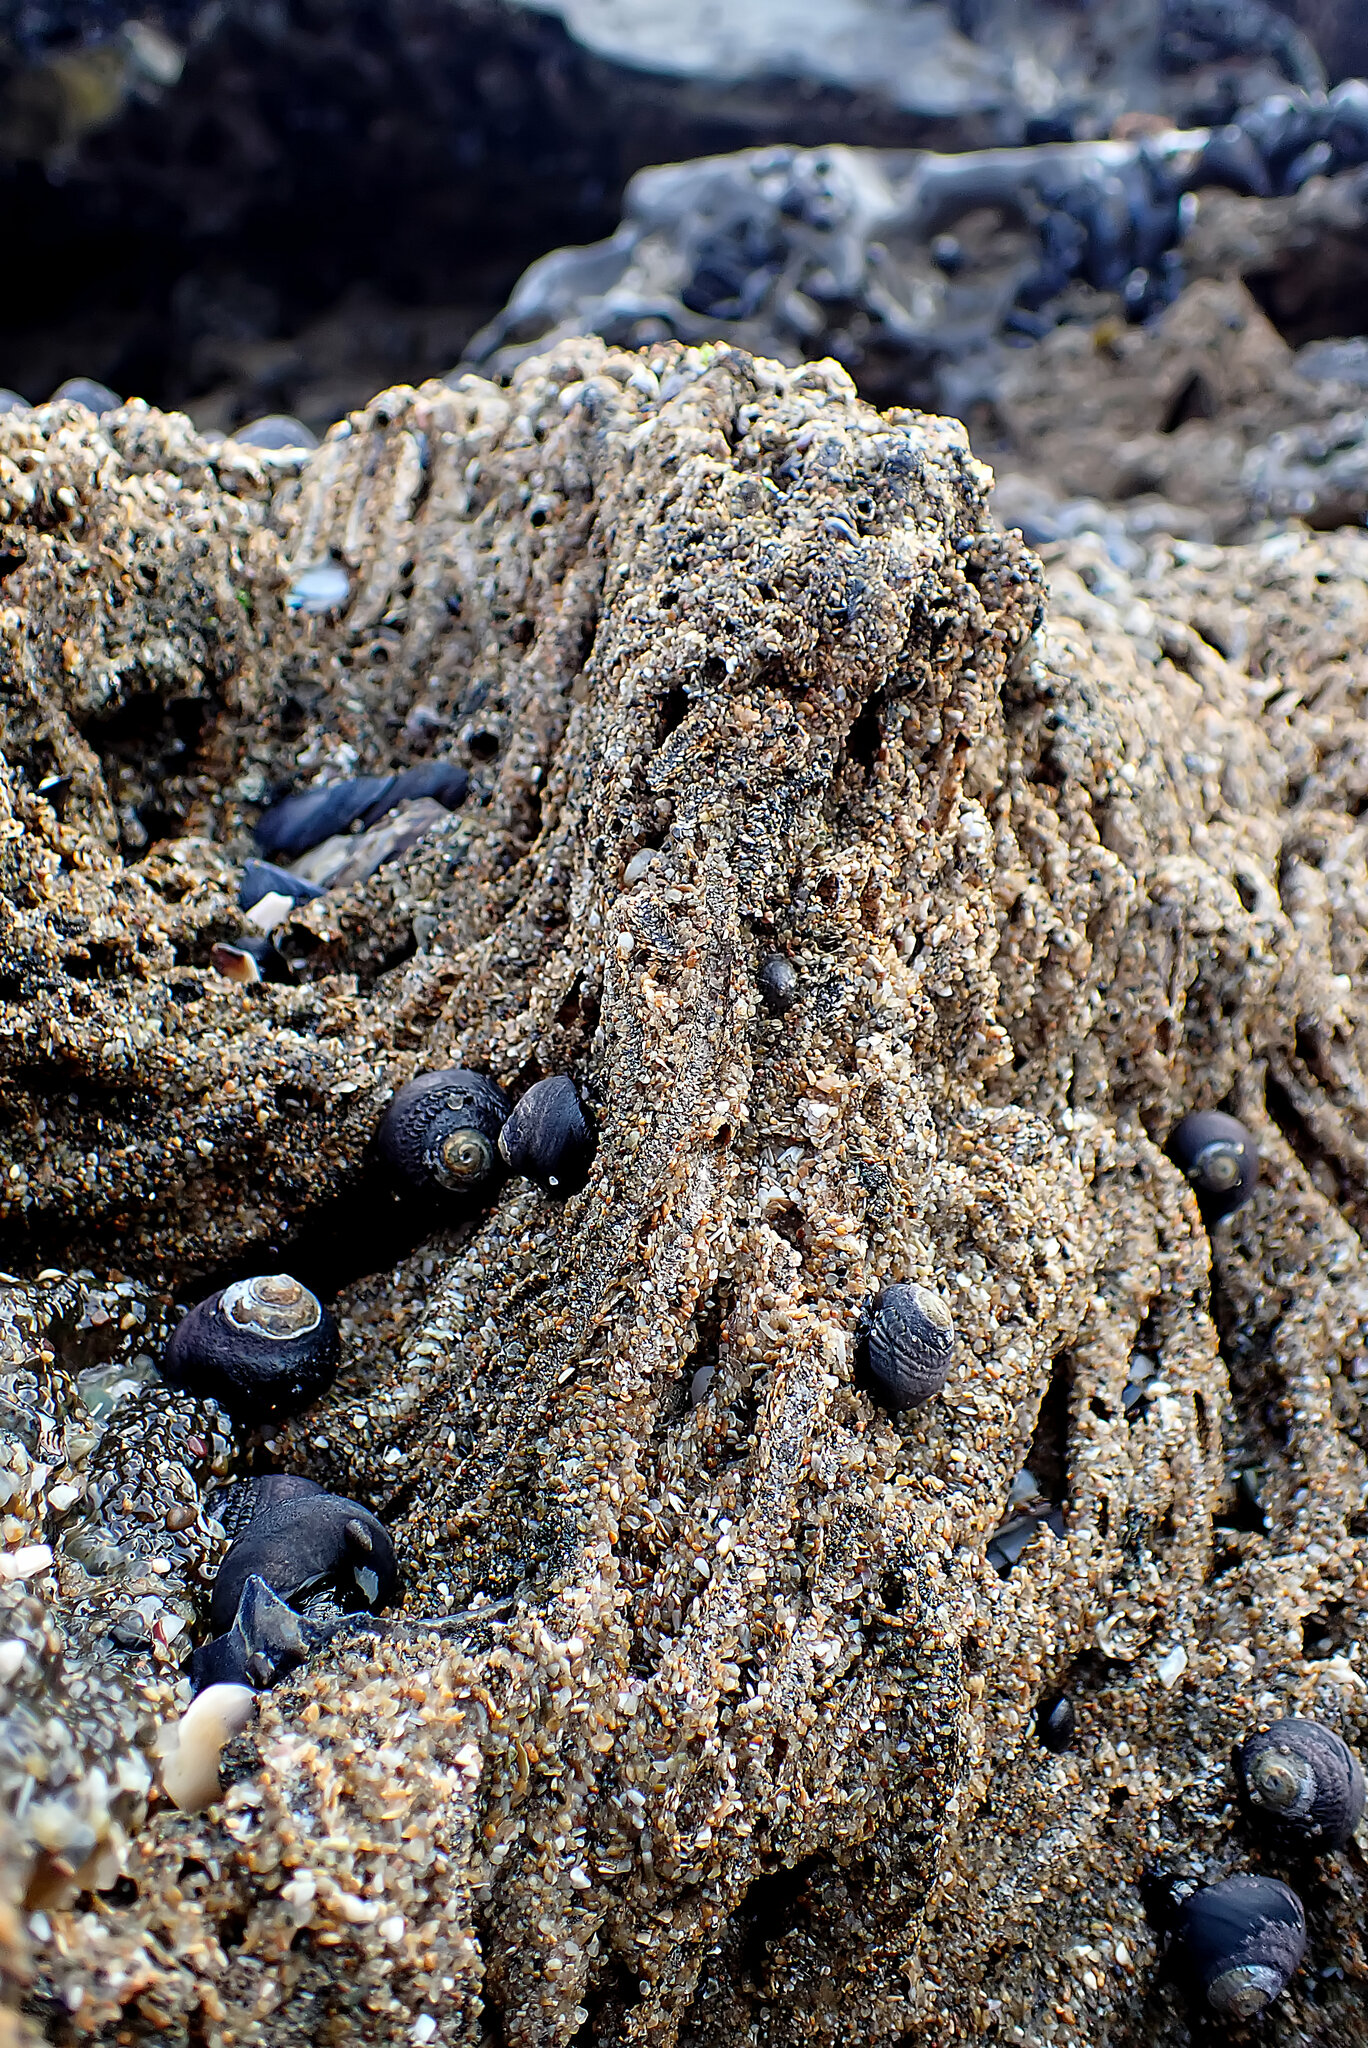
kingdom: Animalia
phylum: Mollusca
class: Gastropoda
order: Trochida
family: Tegulidae
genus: Tegula
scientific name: Tegula funebralis
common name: Black tegula
